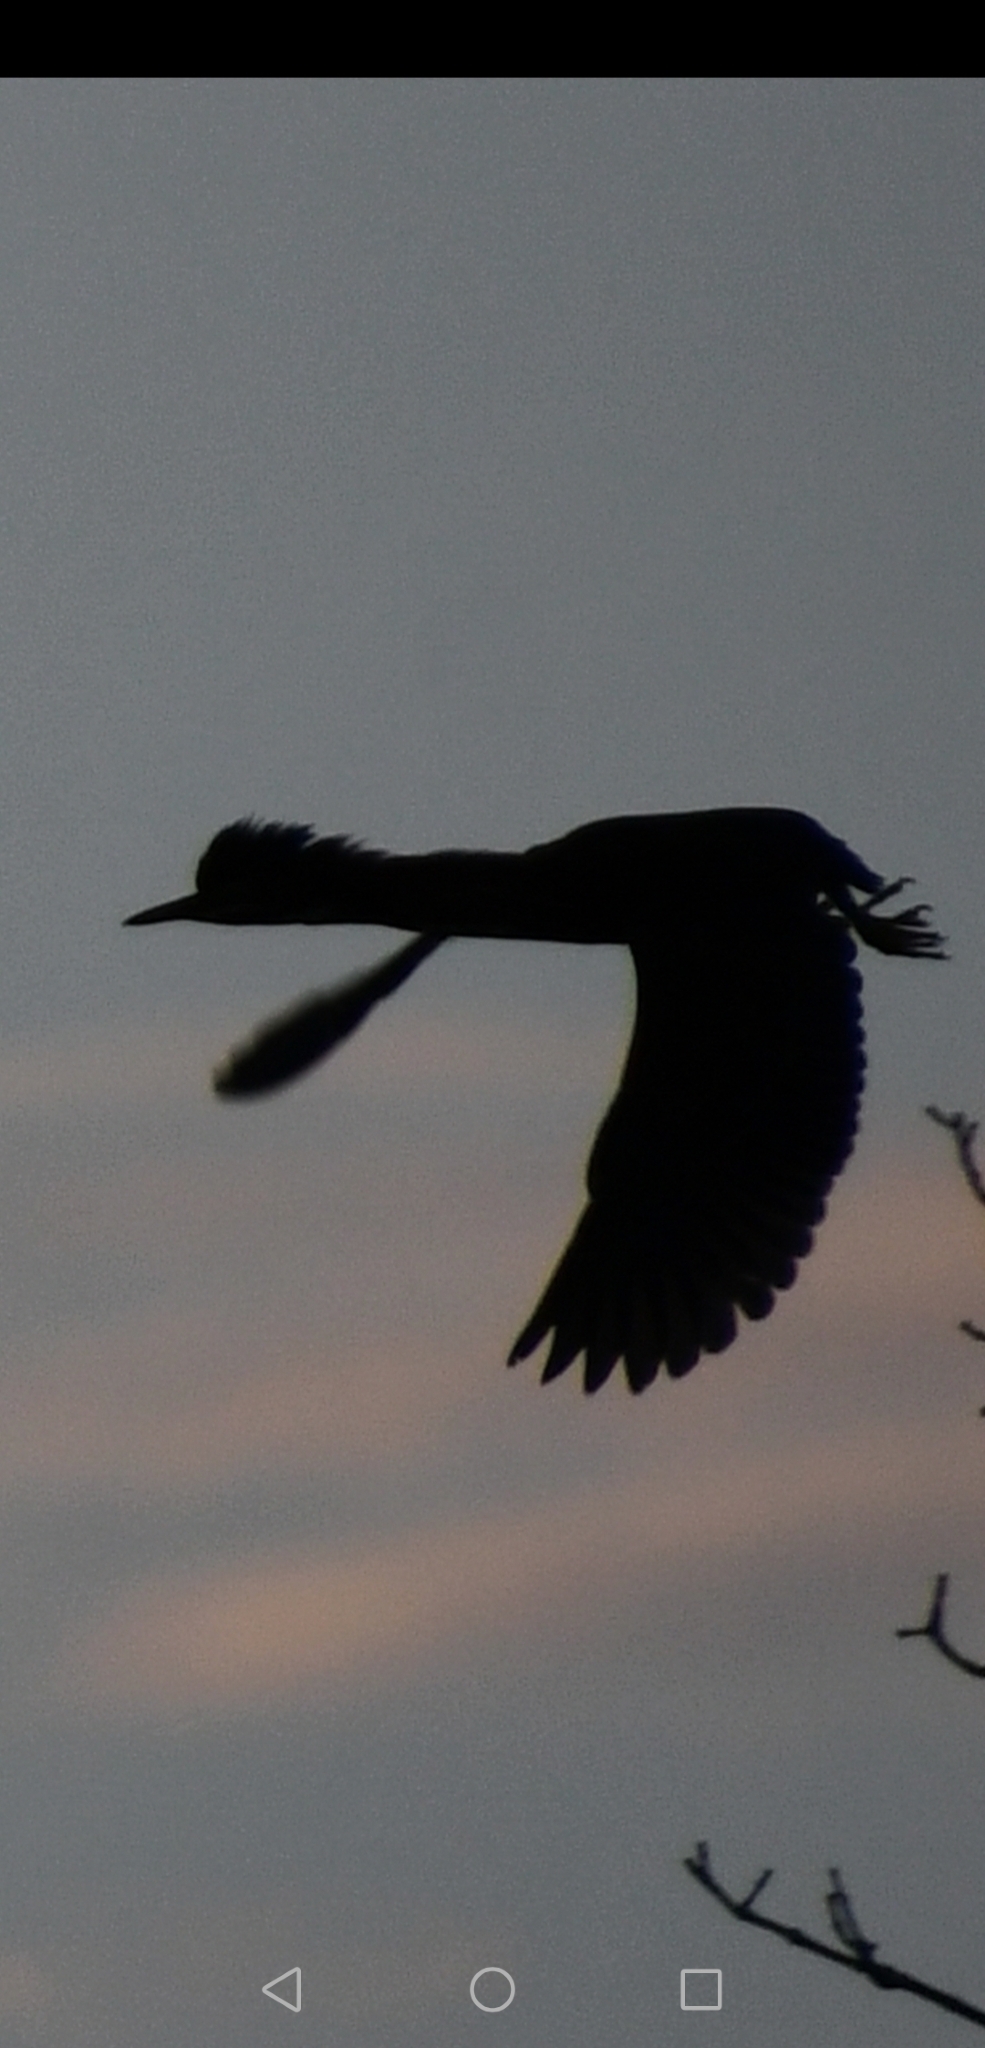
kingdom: Animalia
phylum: Chordata
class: Aves
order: Pelecaniformes
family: Ardeidae
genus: Butorides
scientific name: Butorides virescens
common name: Green heron
